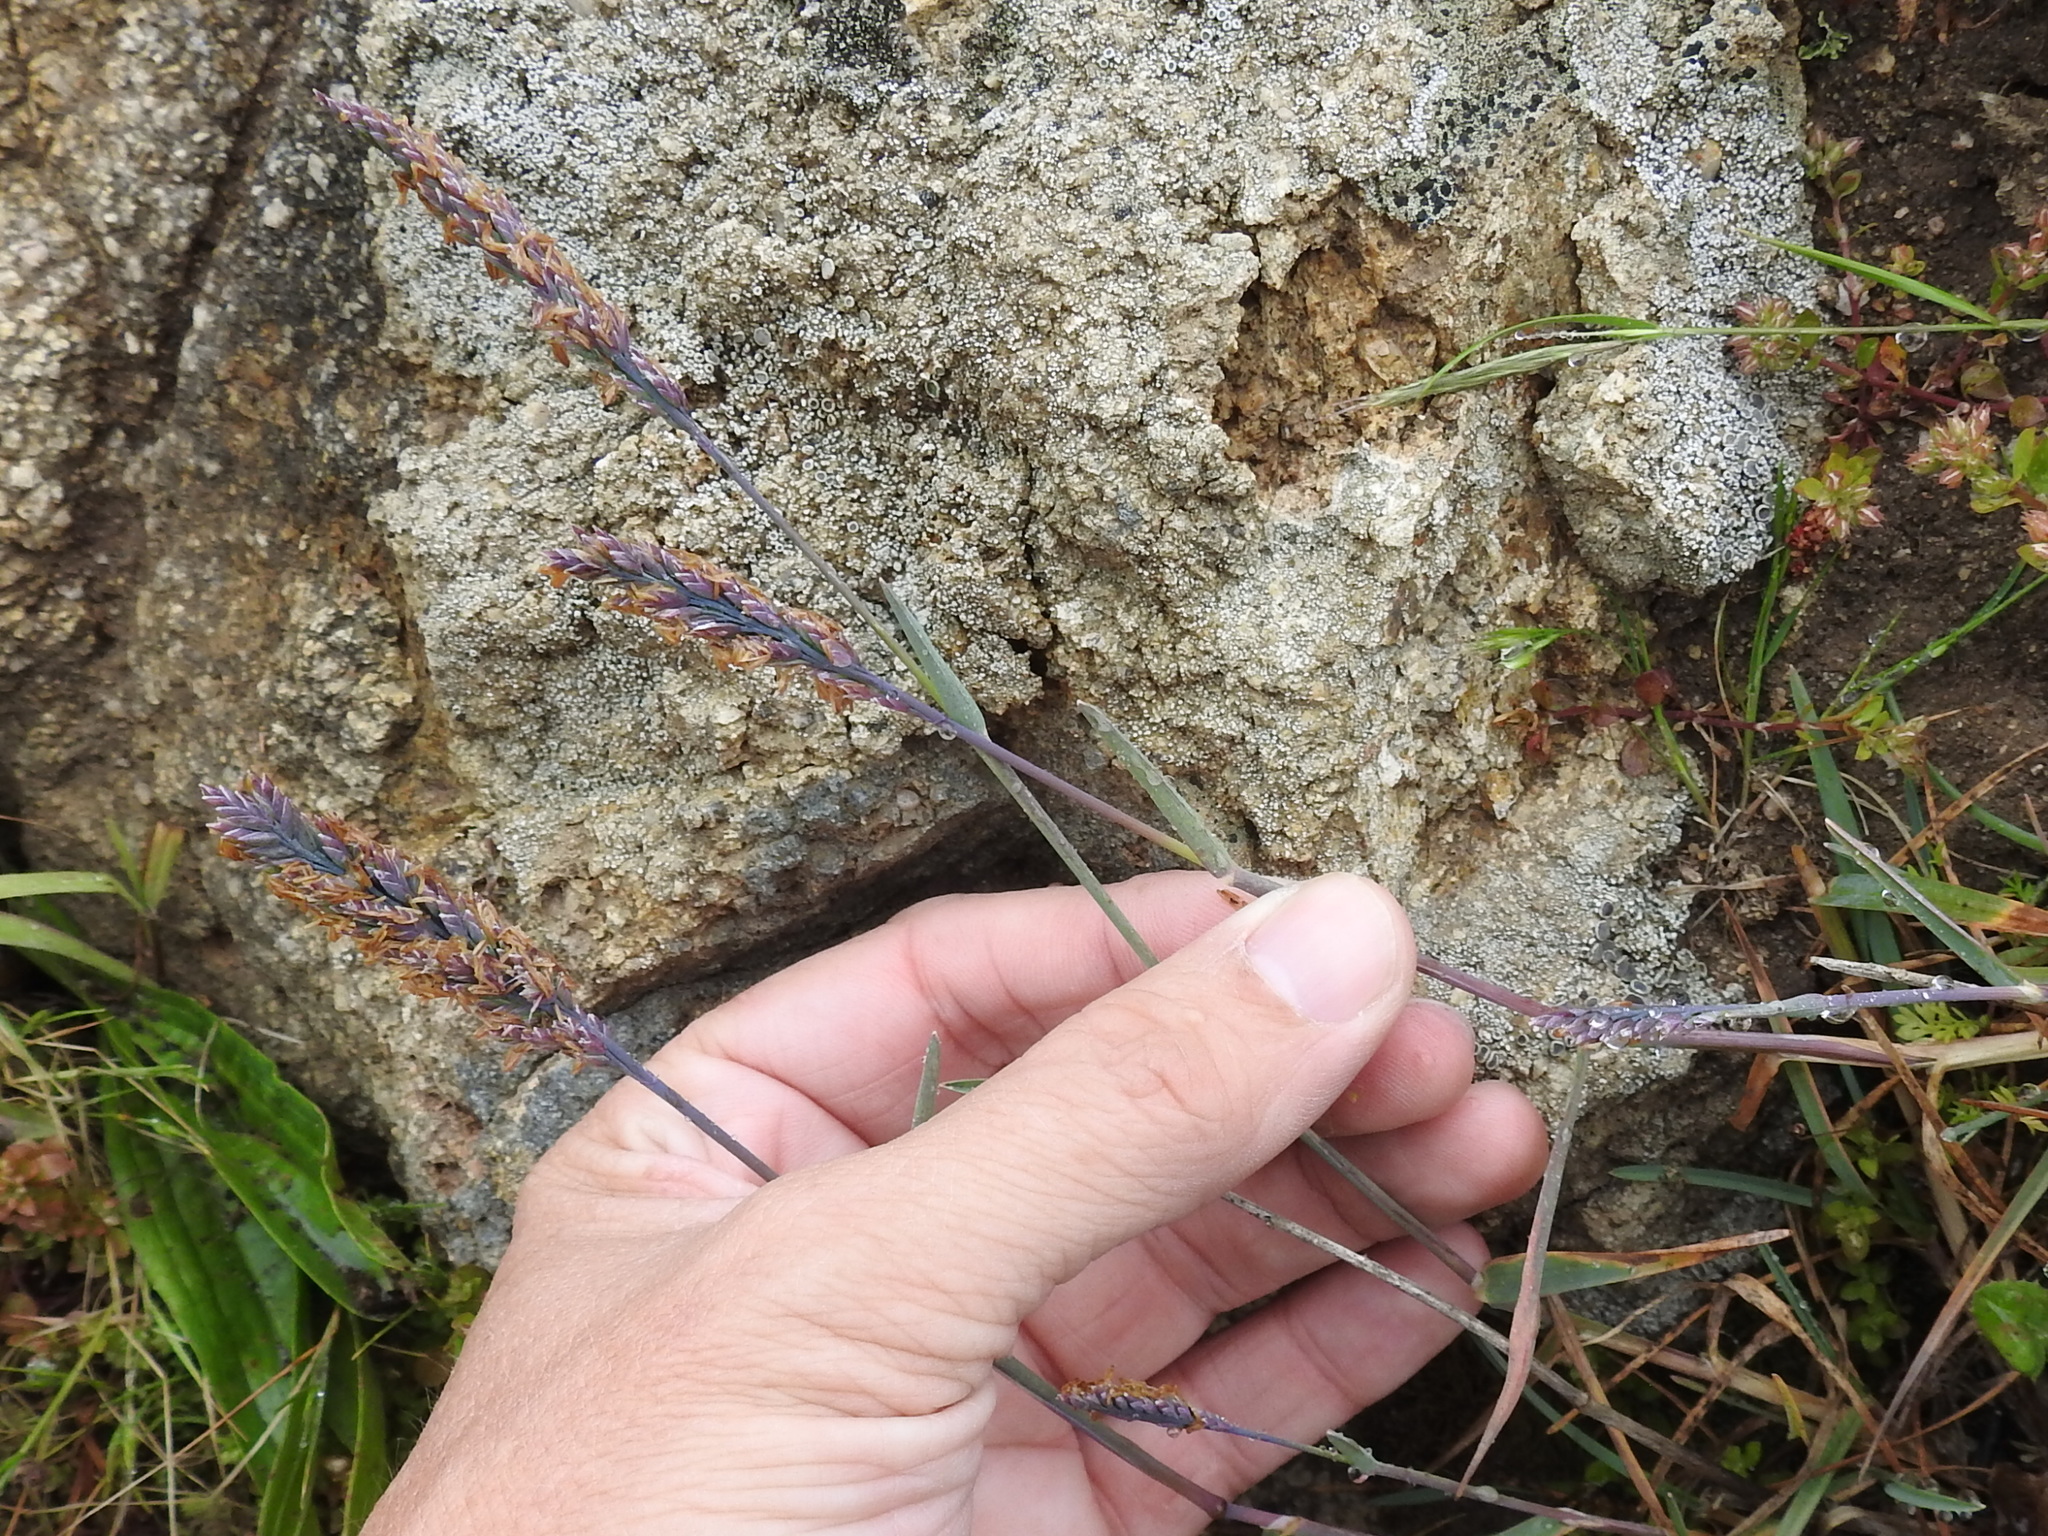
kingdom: Plantae
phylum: Tracheophyta
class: Liliopsida
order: Poales
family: Poaceae
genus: Poa
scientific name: Poa unilateralis
